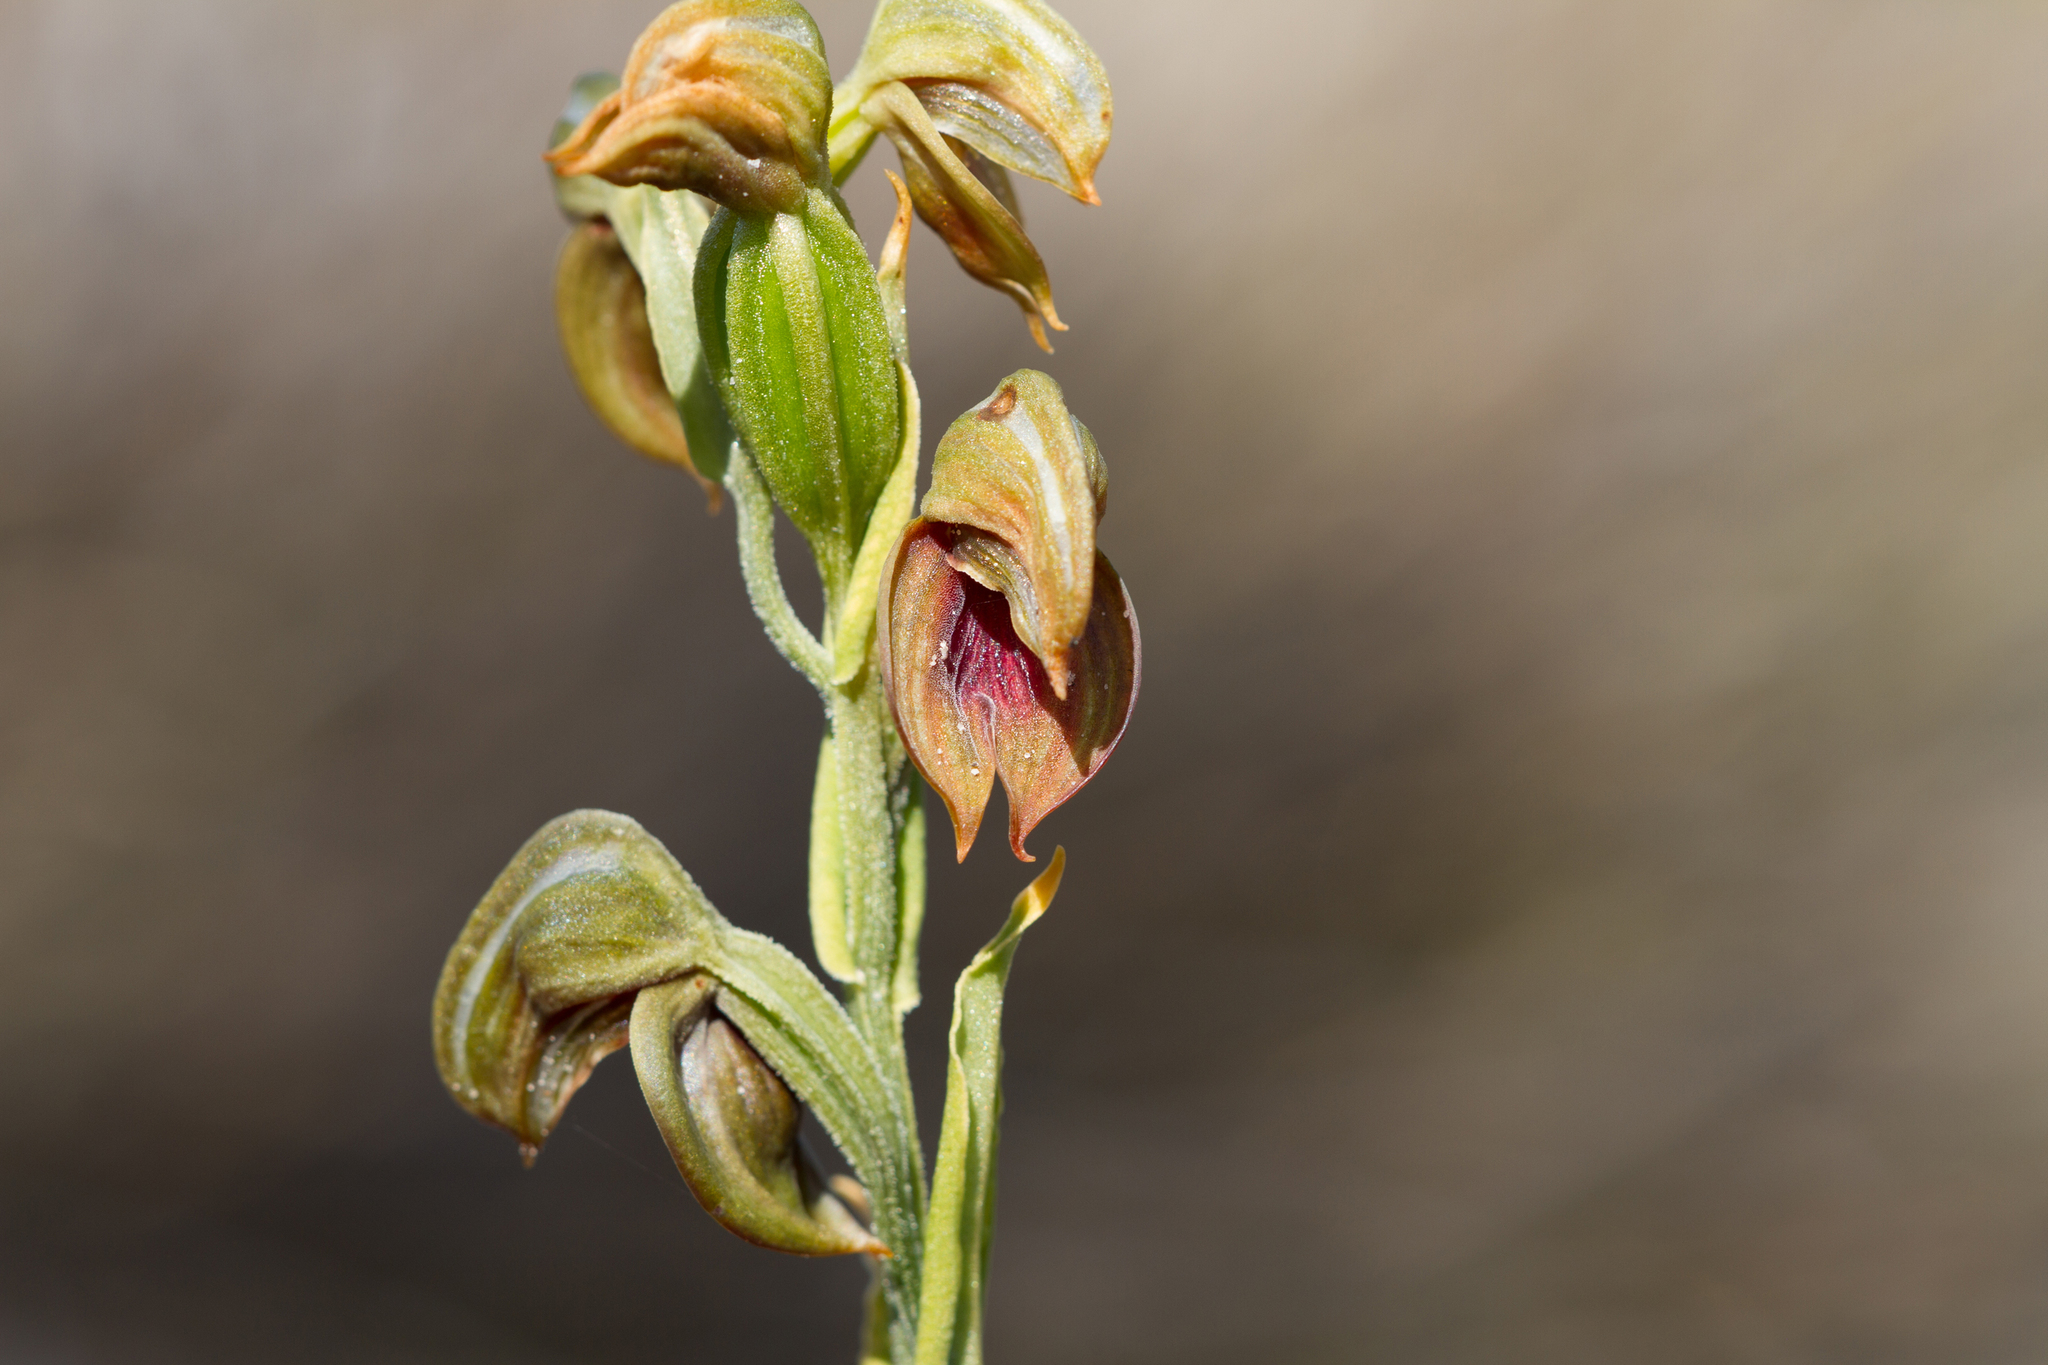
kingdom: Plantae
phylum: Tracheophyta
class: Liliopsida
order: Asparagales
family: Orchidaceae
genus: Pterostylis
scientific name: Pterostylis sanguinea
